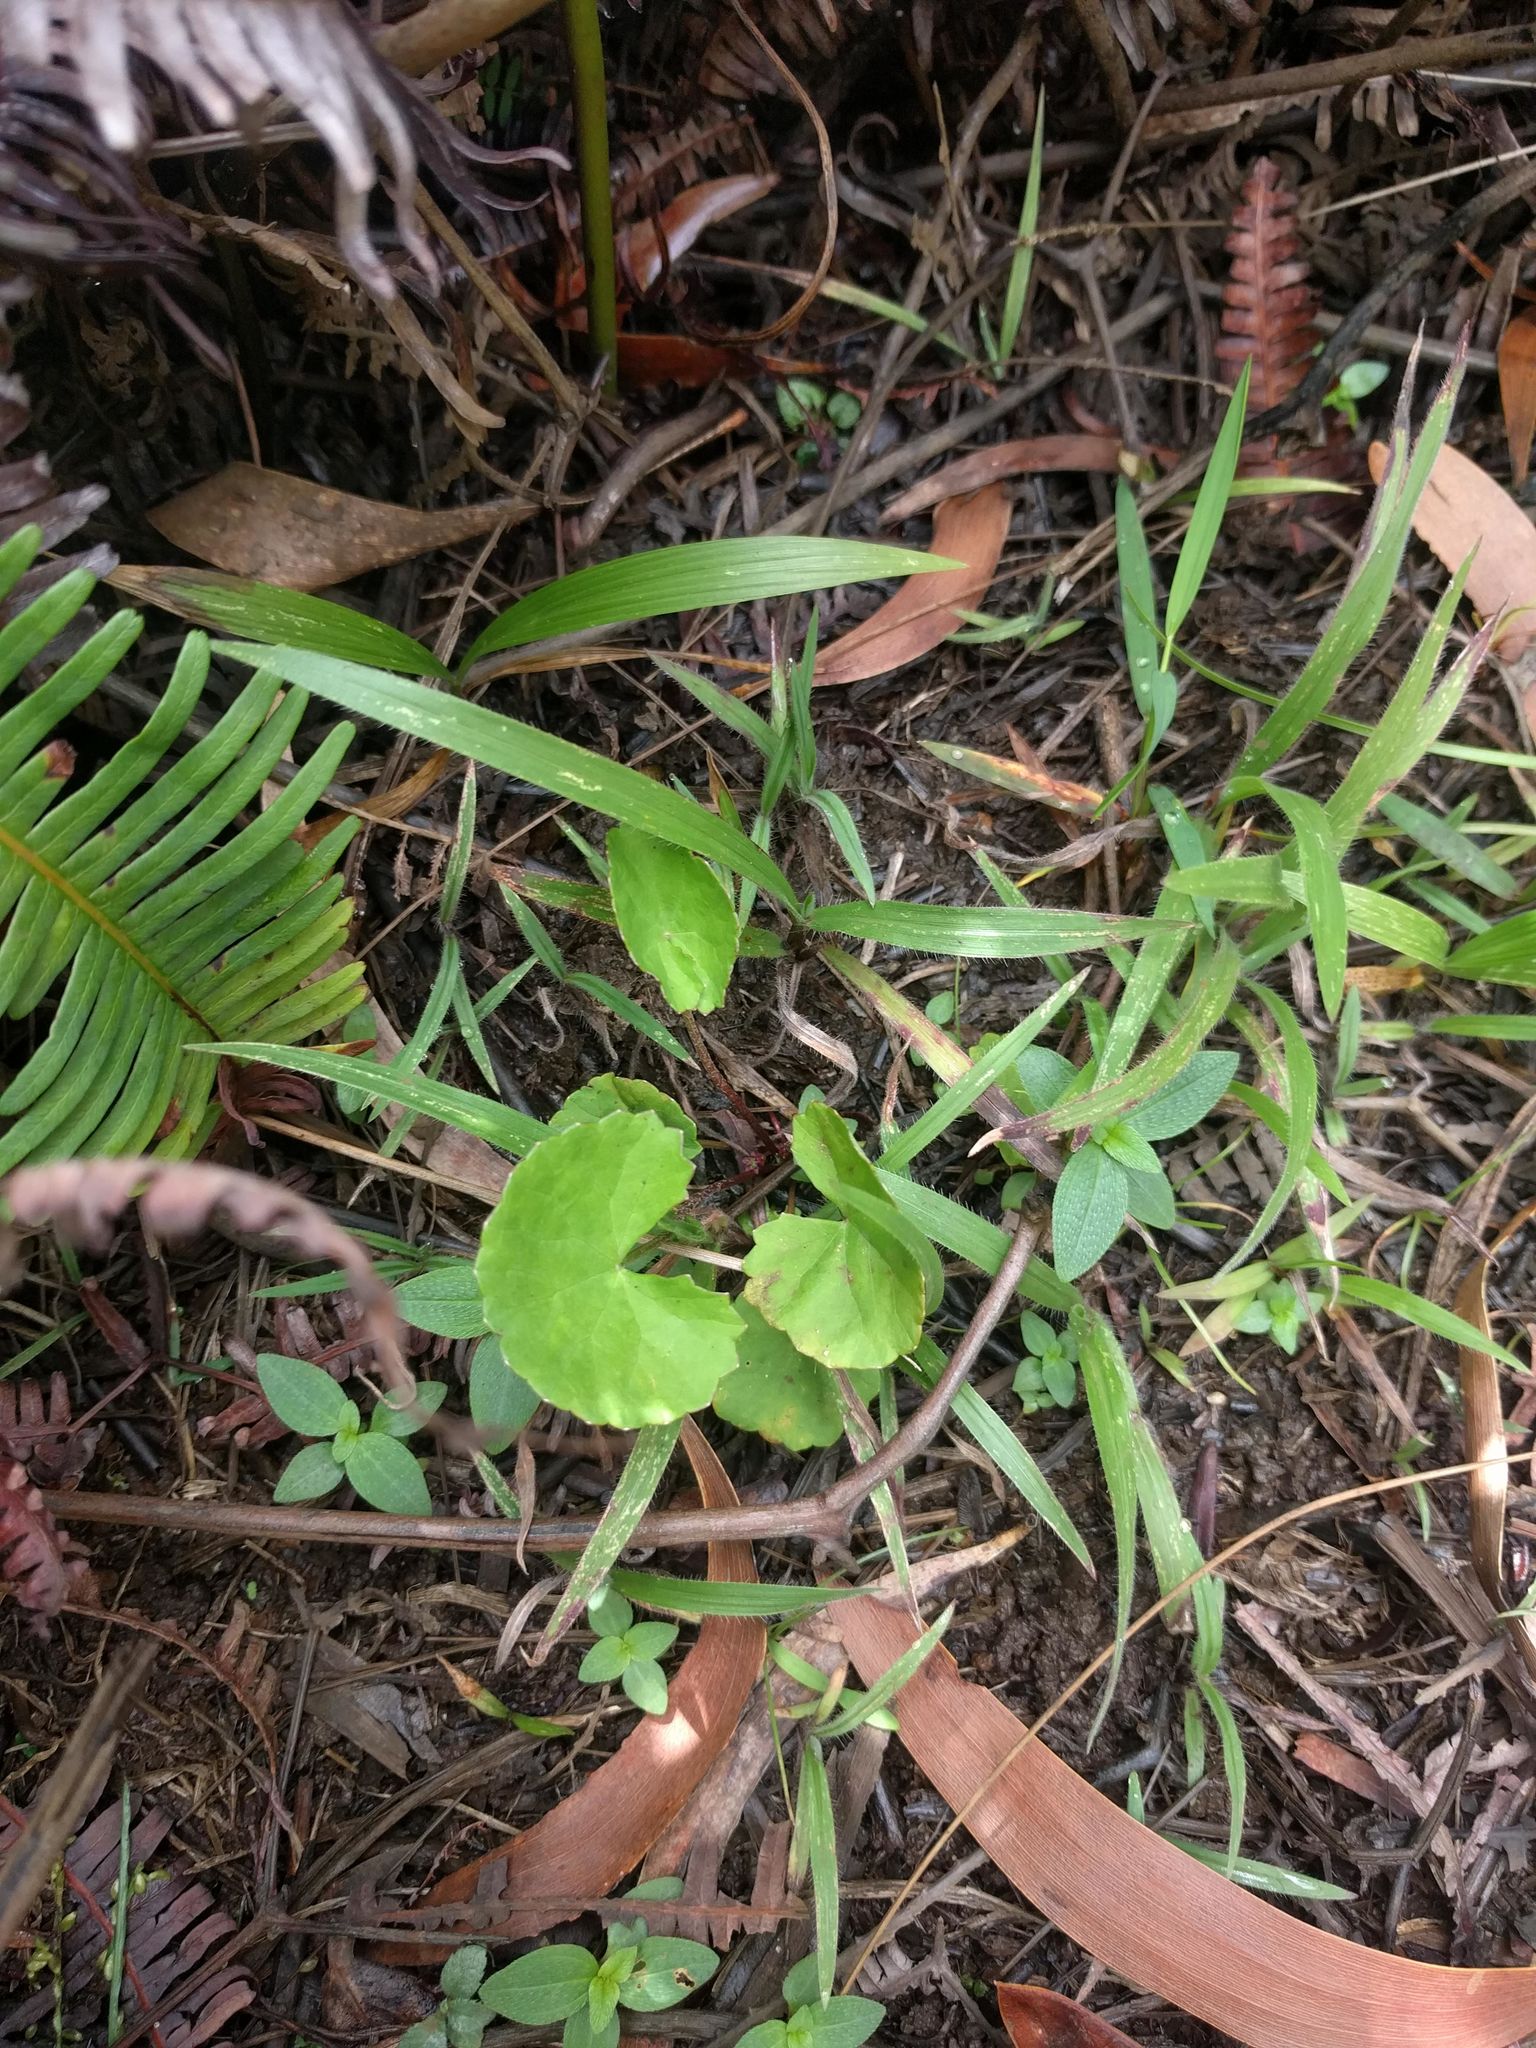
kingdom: Plantae
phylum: Tracheophyta
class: Magnoliopsida
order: Apiales
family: Apiaceae
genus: Centella
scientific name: Centella asiatica
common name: Spadeleaf
